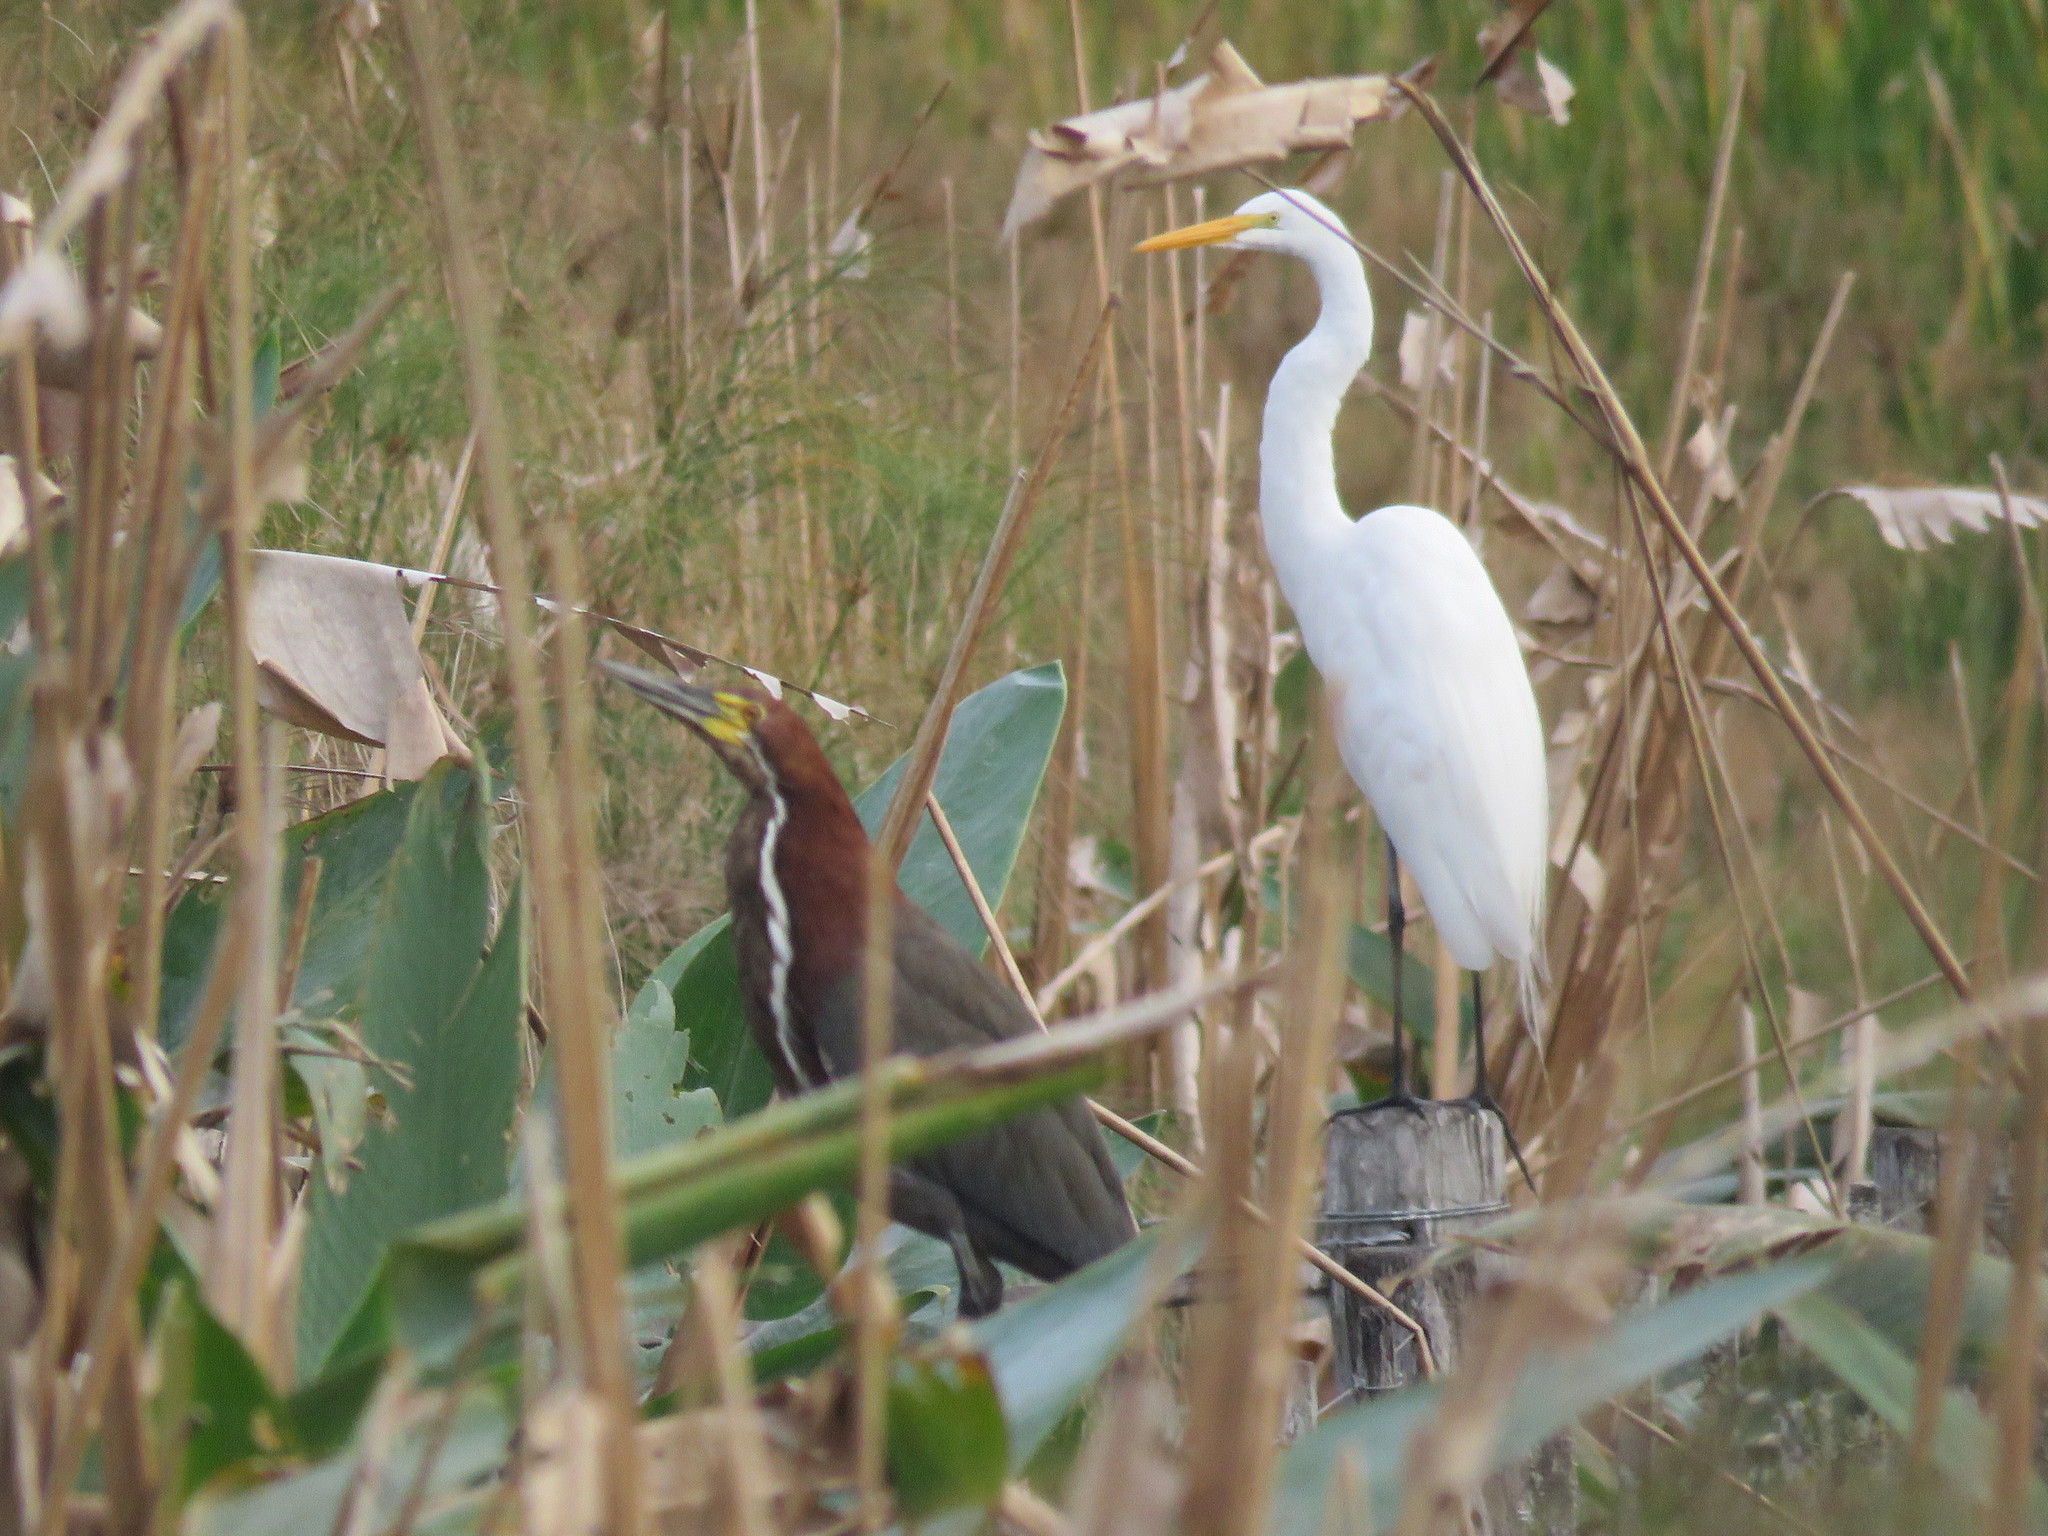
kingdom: Animalia
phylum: Chordata
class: Aves
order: Pelecaniformes
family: Ardeidae
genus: Ardea
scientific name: Ardea alba
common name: Great egret
